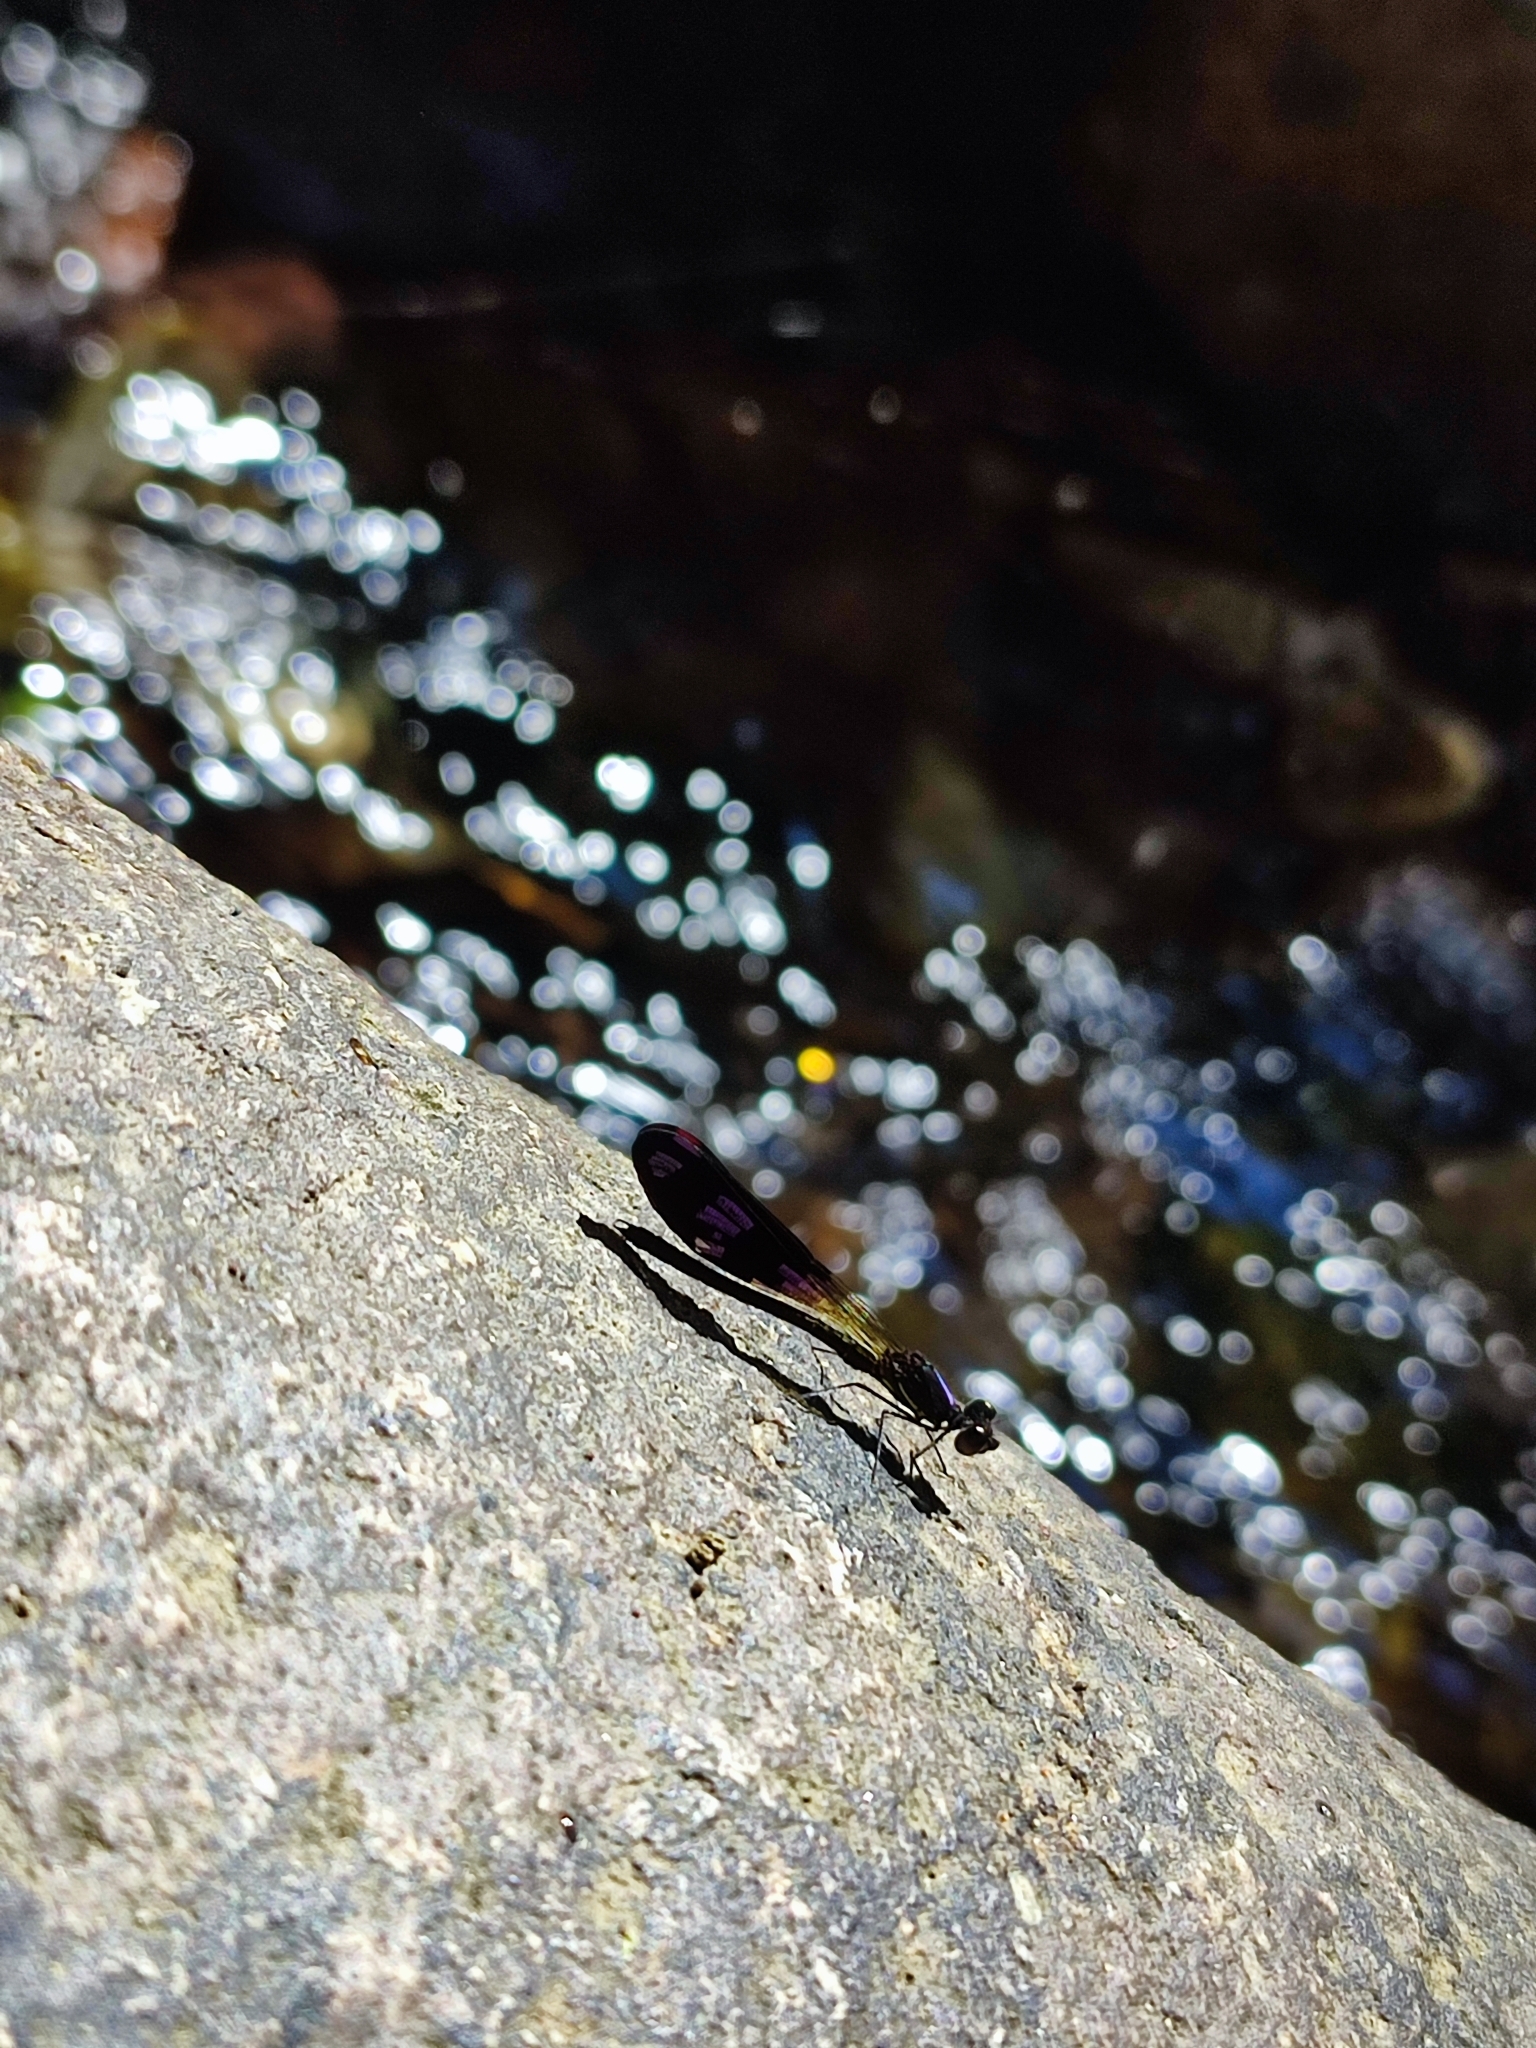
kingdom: Animalia
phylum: Arthropoda
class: Insecta
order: Odonata
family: Chlorocyphidae
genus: Aristocypha
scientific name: Aristocypha fenestrella
